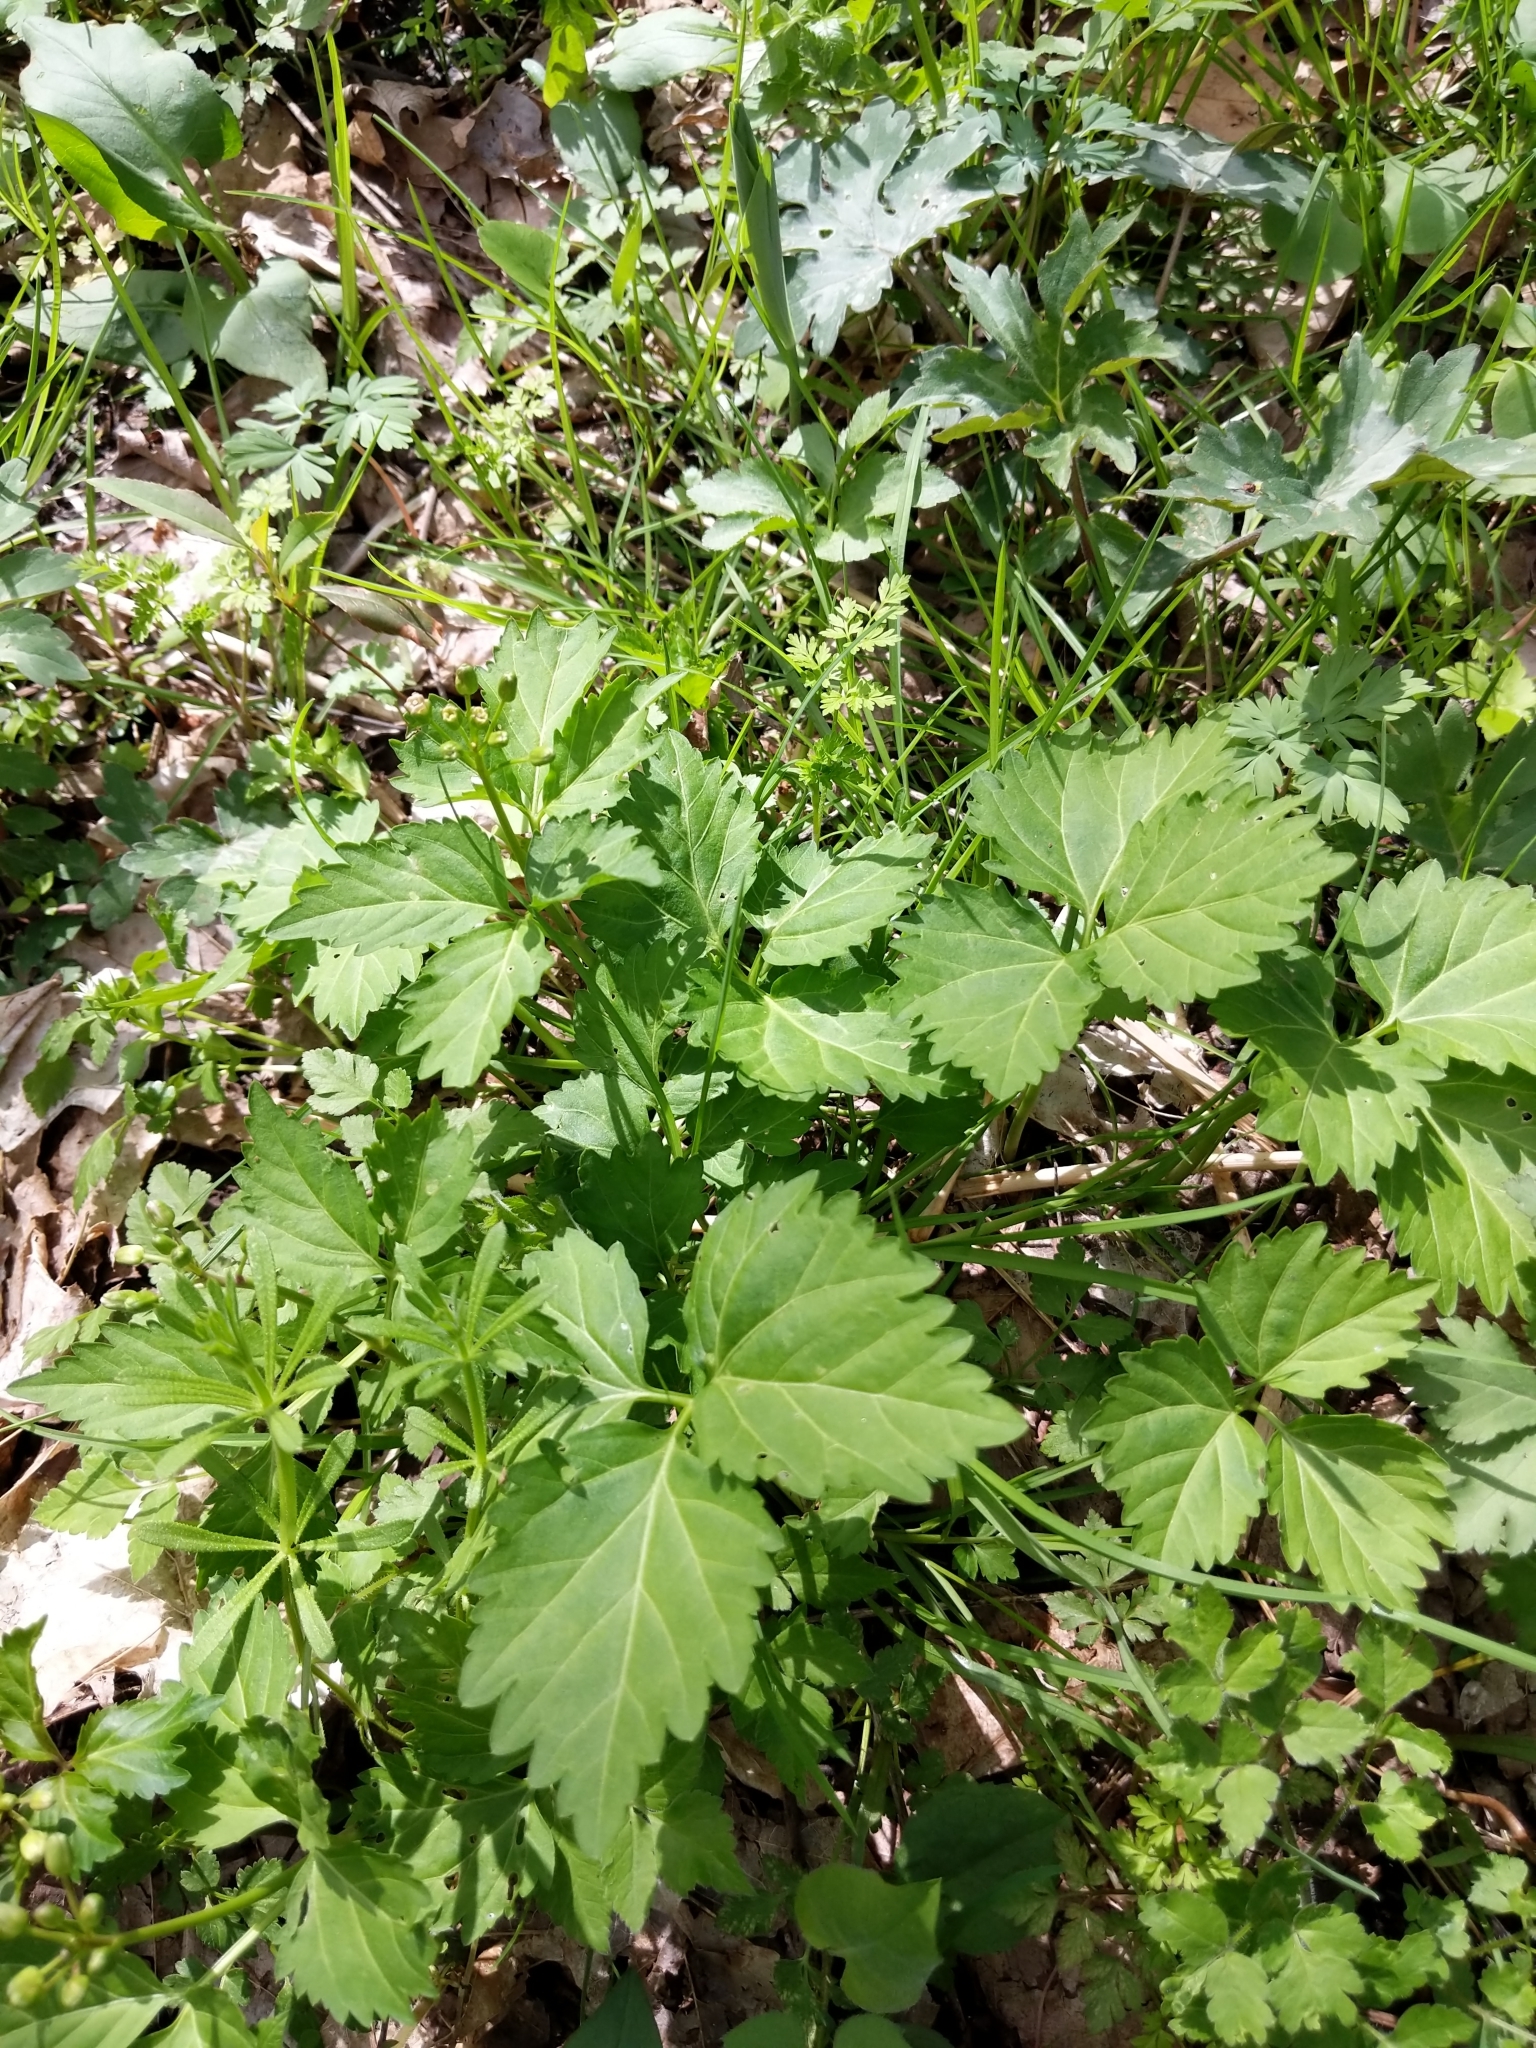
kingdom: Plantae
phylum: Tracheophyta
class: Magnoliopsida
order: Brassicales
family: Brassicaceae
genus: Cardamine
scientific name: Cardamine diphylla
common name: Broad-leaved toothwort
